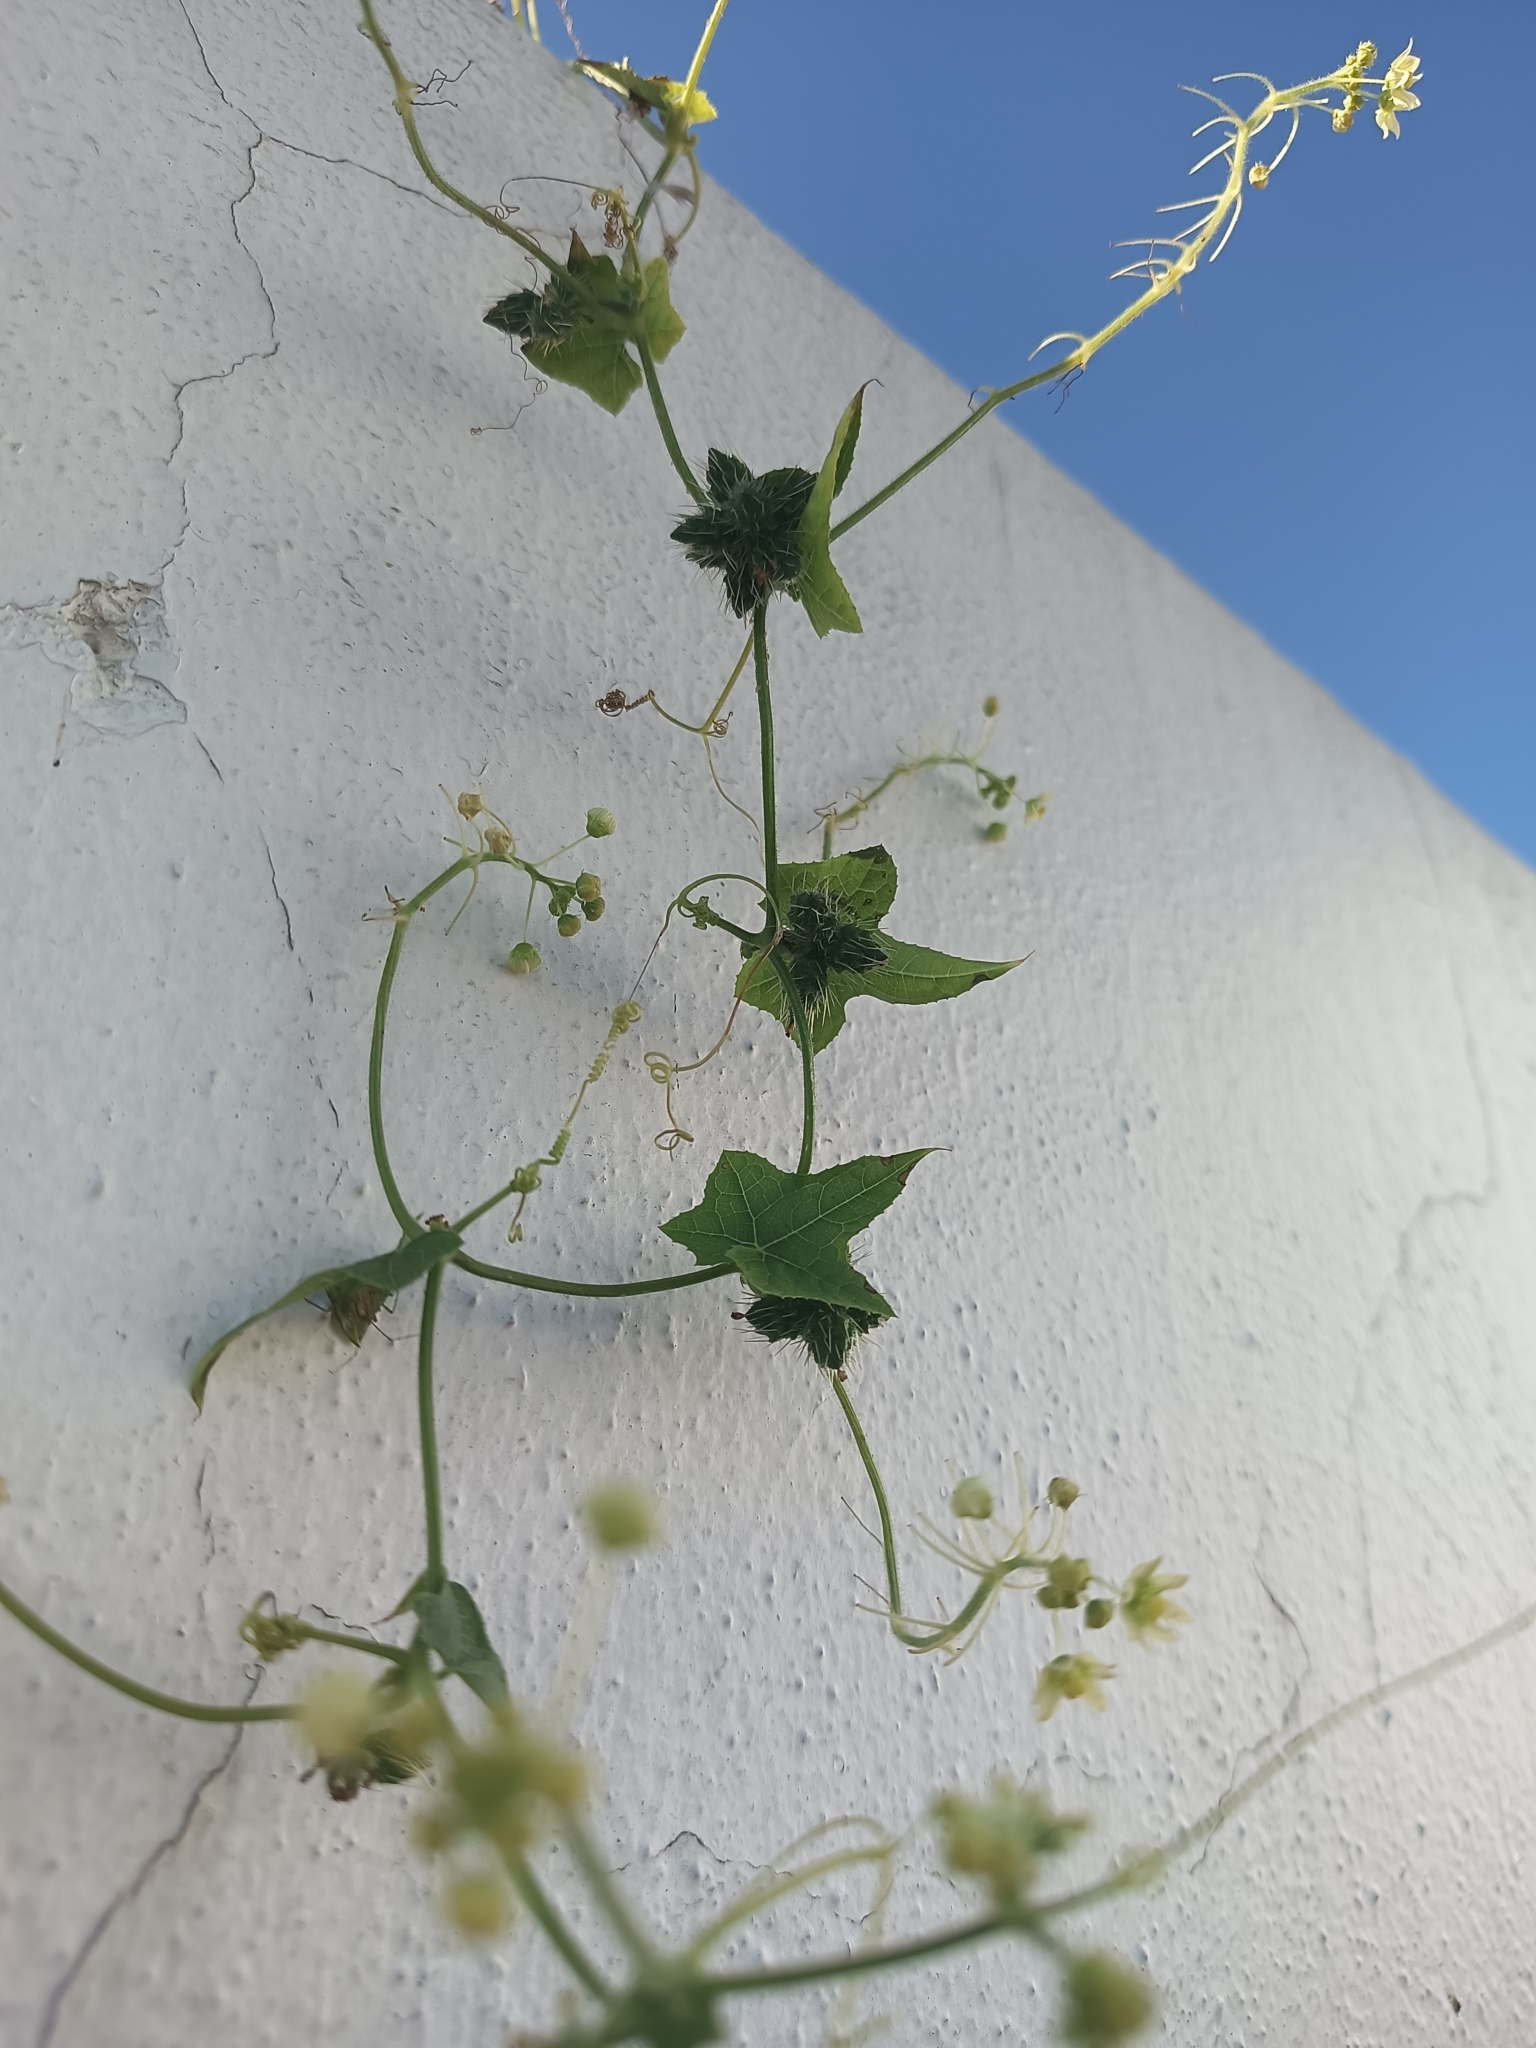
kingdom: Plantae
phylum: Tracheophyta
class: Magnoliopsida
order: Cucurbitales
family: Cucurbitaceae
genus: Sicyos
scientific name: Sicyos microphyllus
